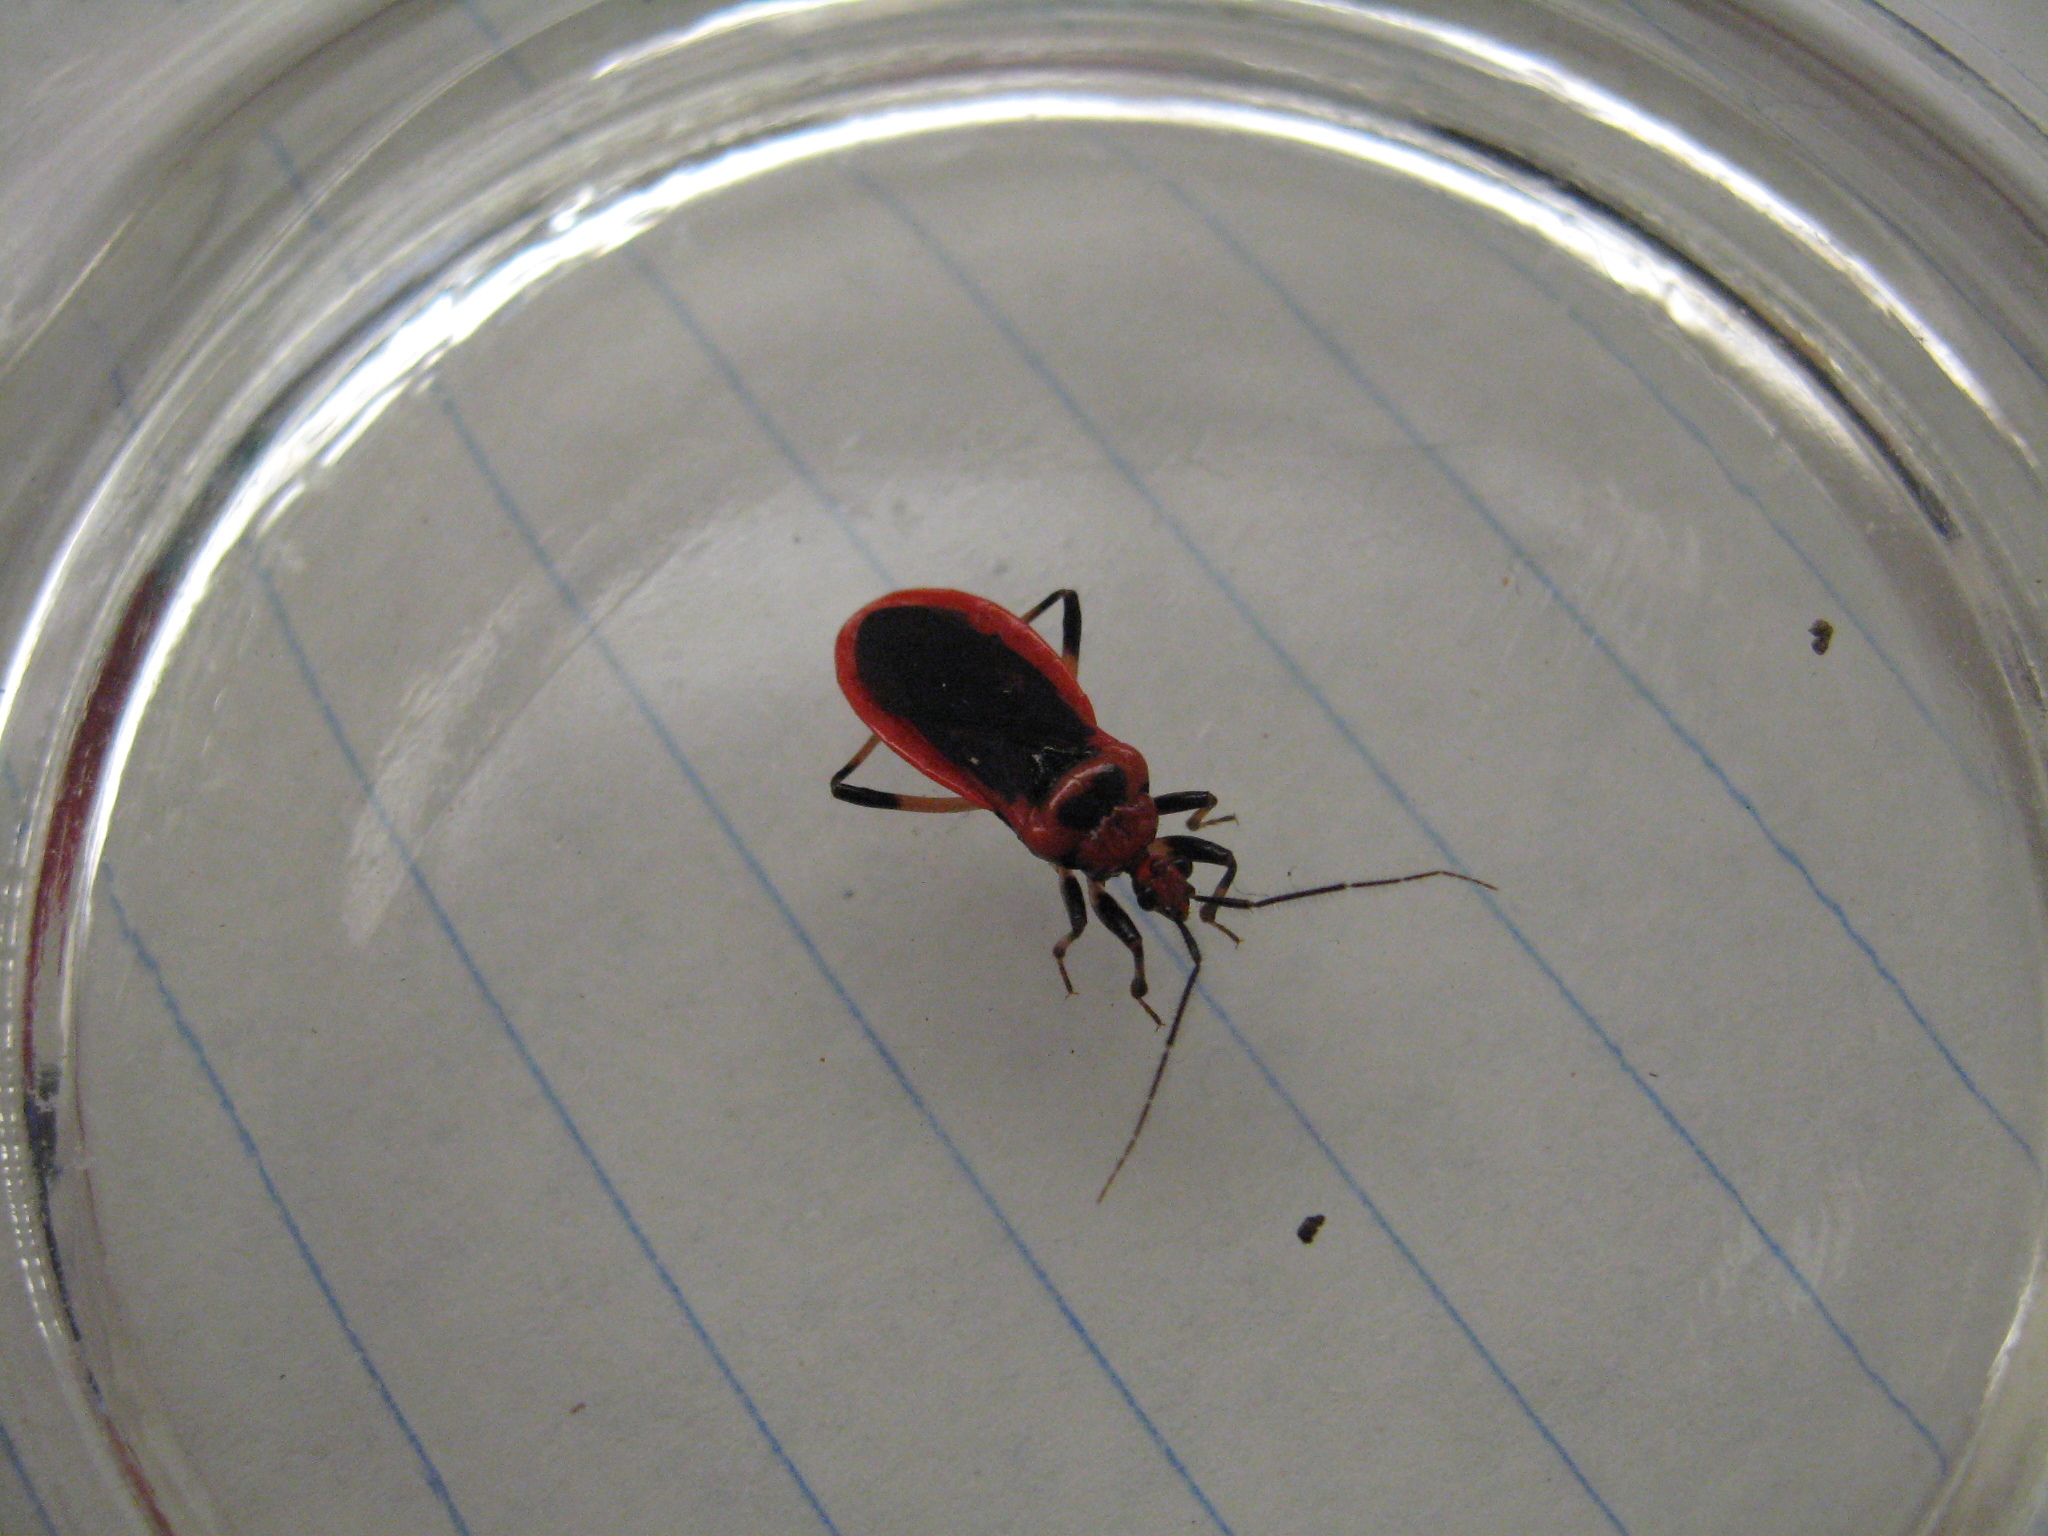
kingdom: Animalia
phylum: Arthropoda
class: Insecta
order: Hemiptera
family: Reduviidae
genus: Rhiginia
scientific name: Rhiginia cruciata
